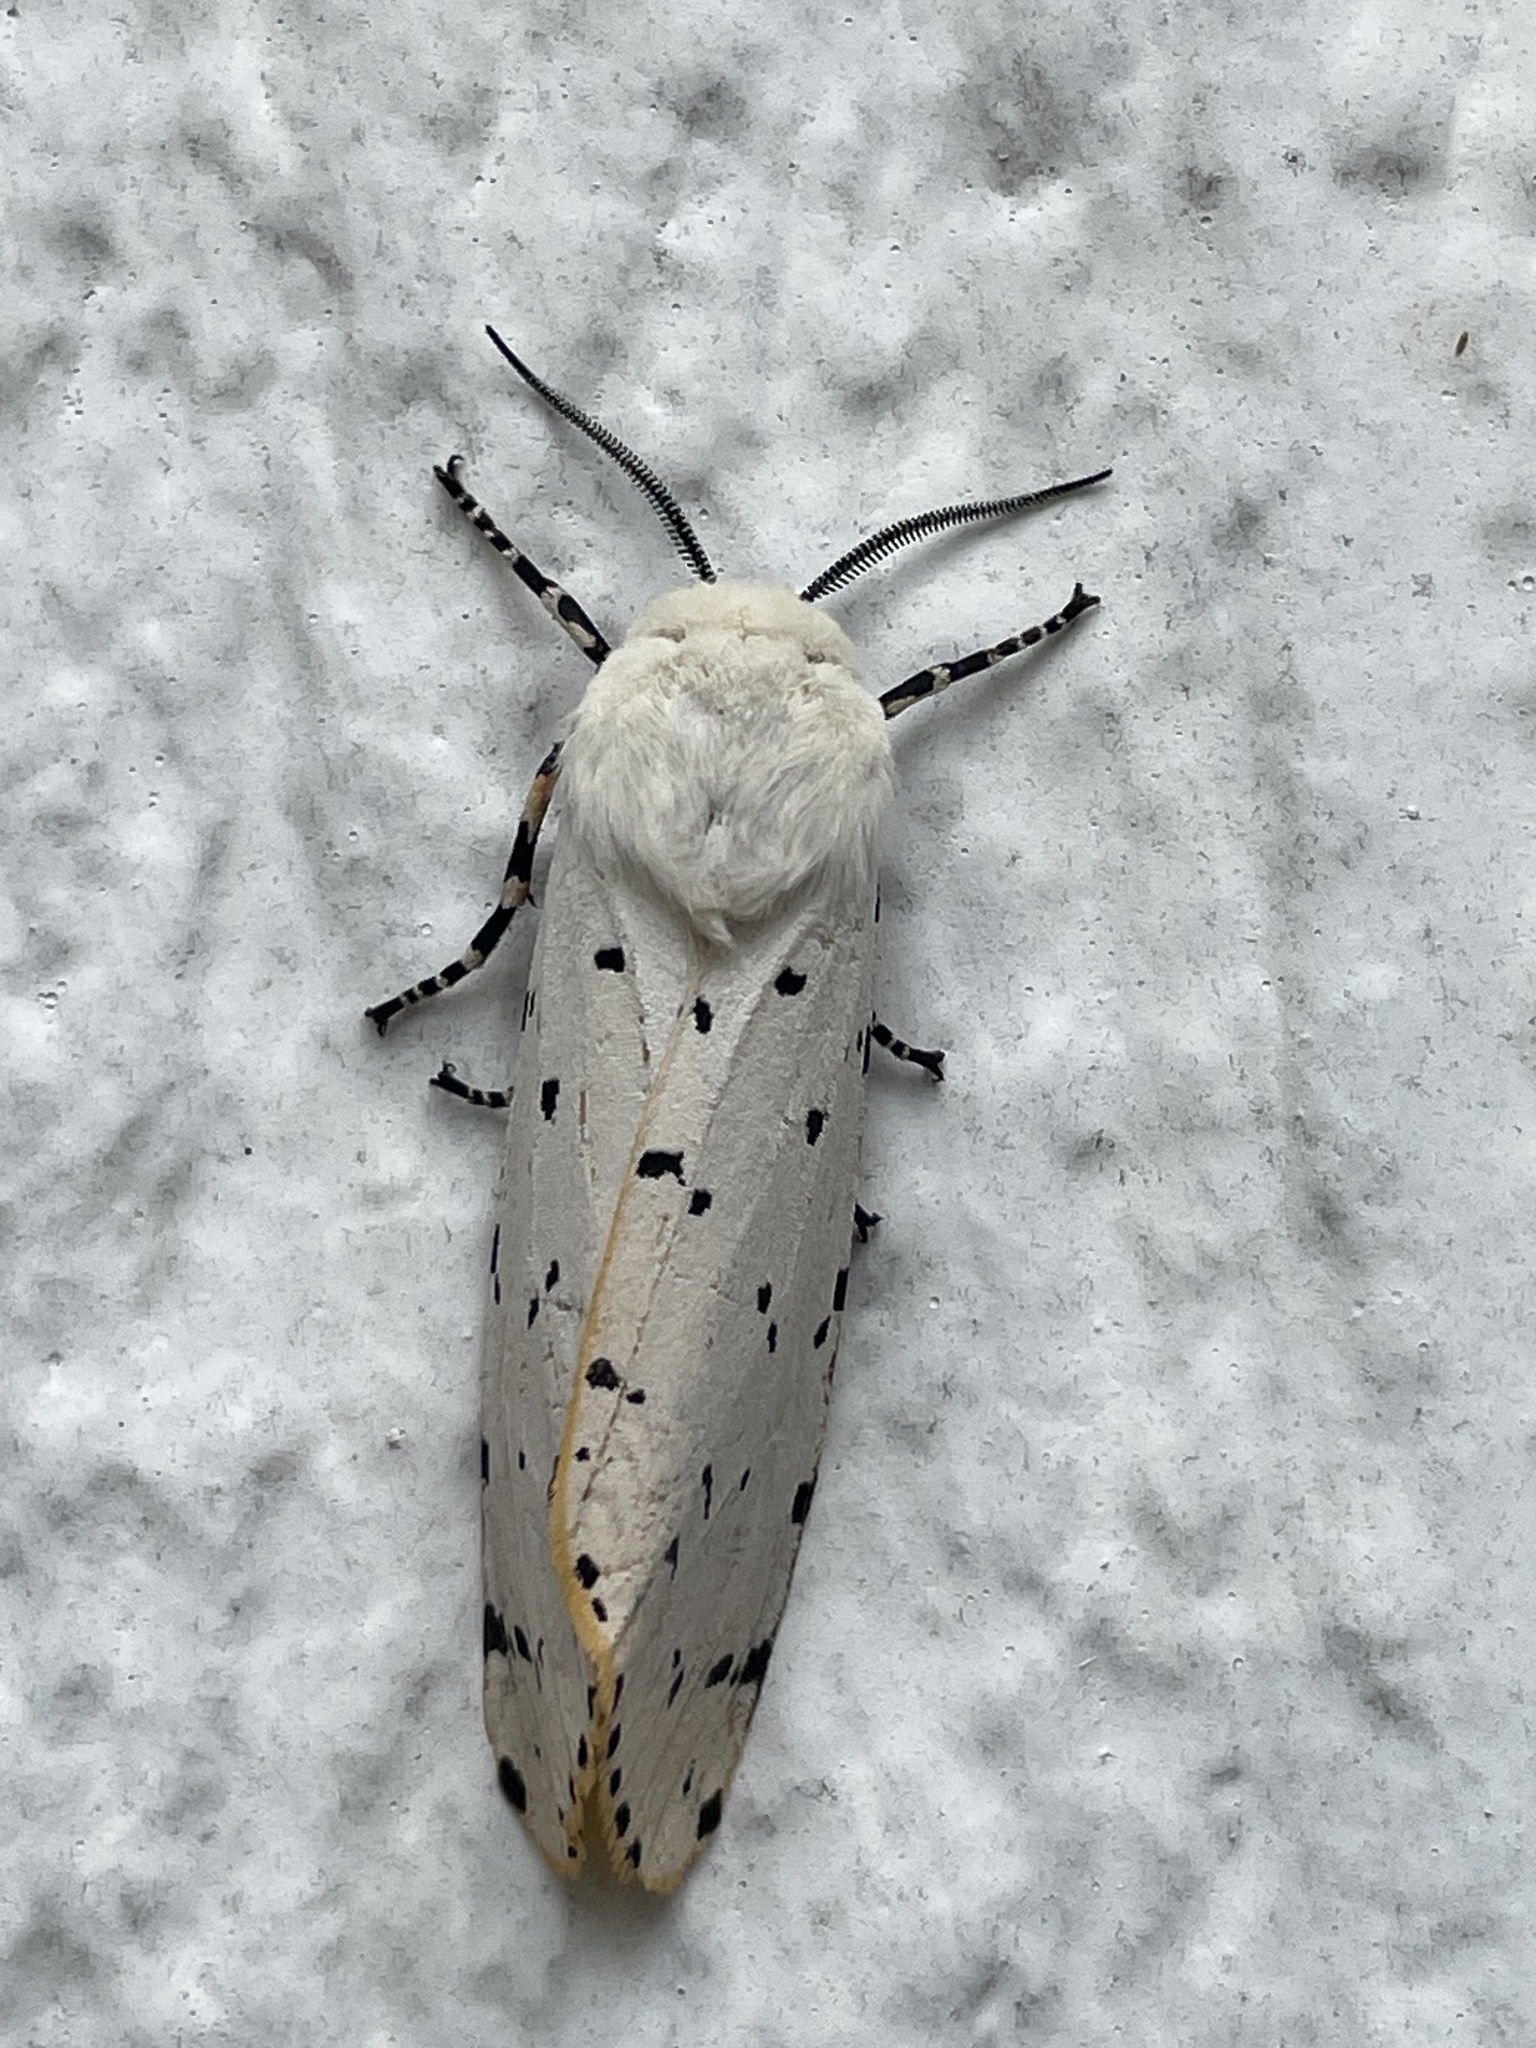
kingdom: Animalia
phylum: Arthropoda
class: Insecta
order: Lepidoptera
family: Erebidae
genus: Estigmene
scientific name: Estigmene acrea
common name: Salt marsh moth
